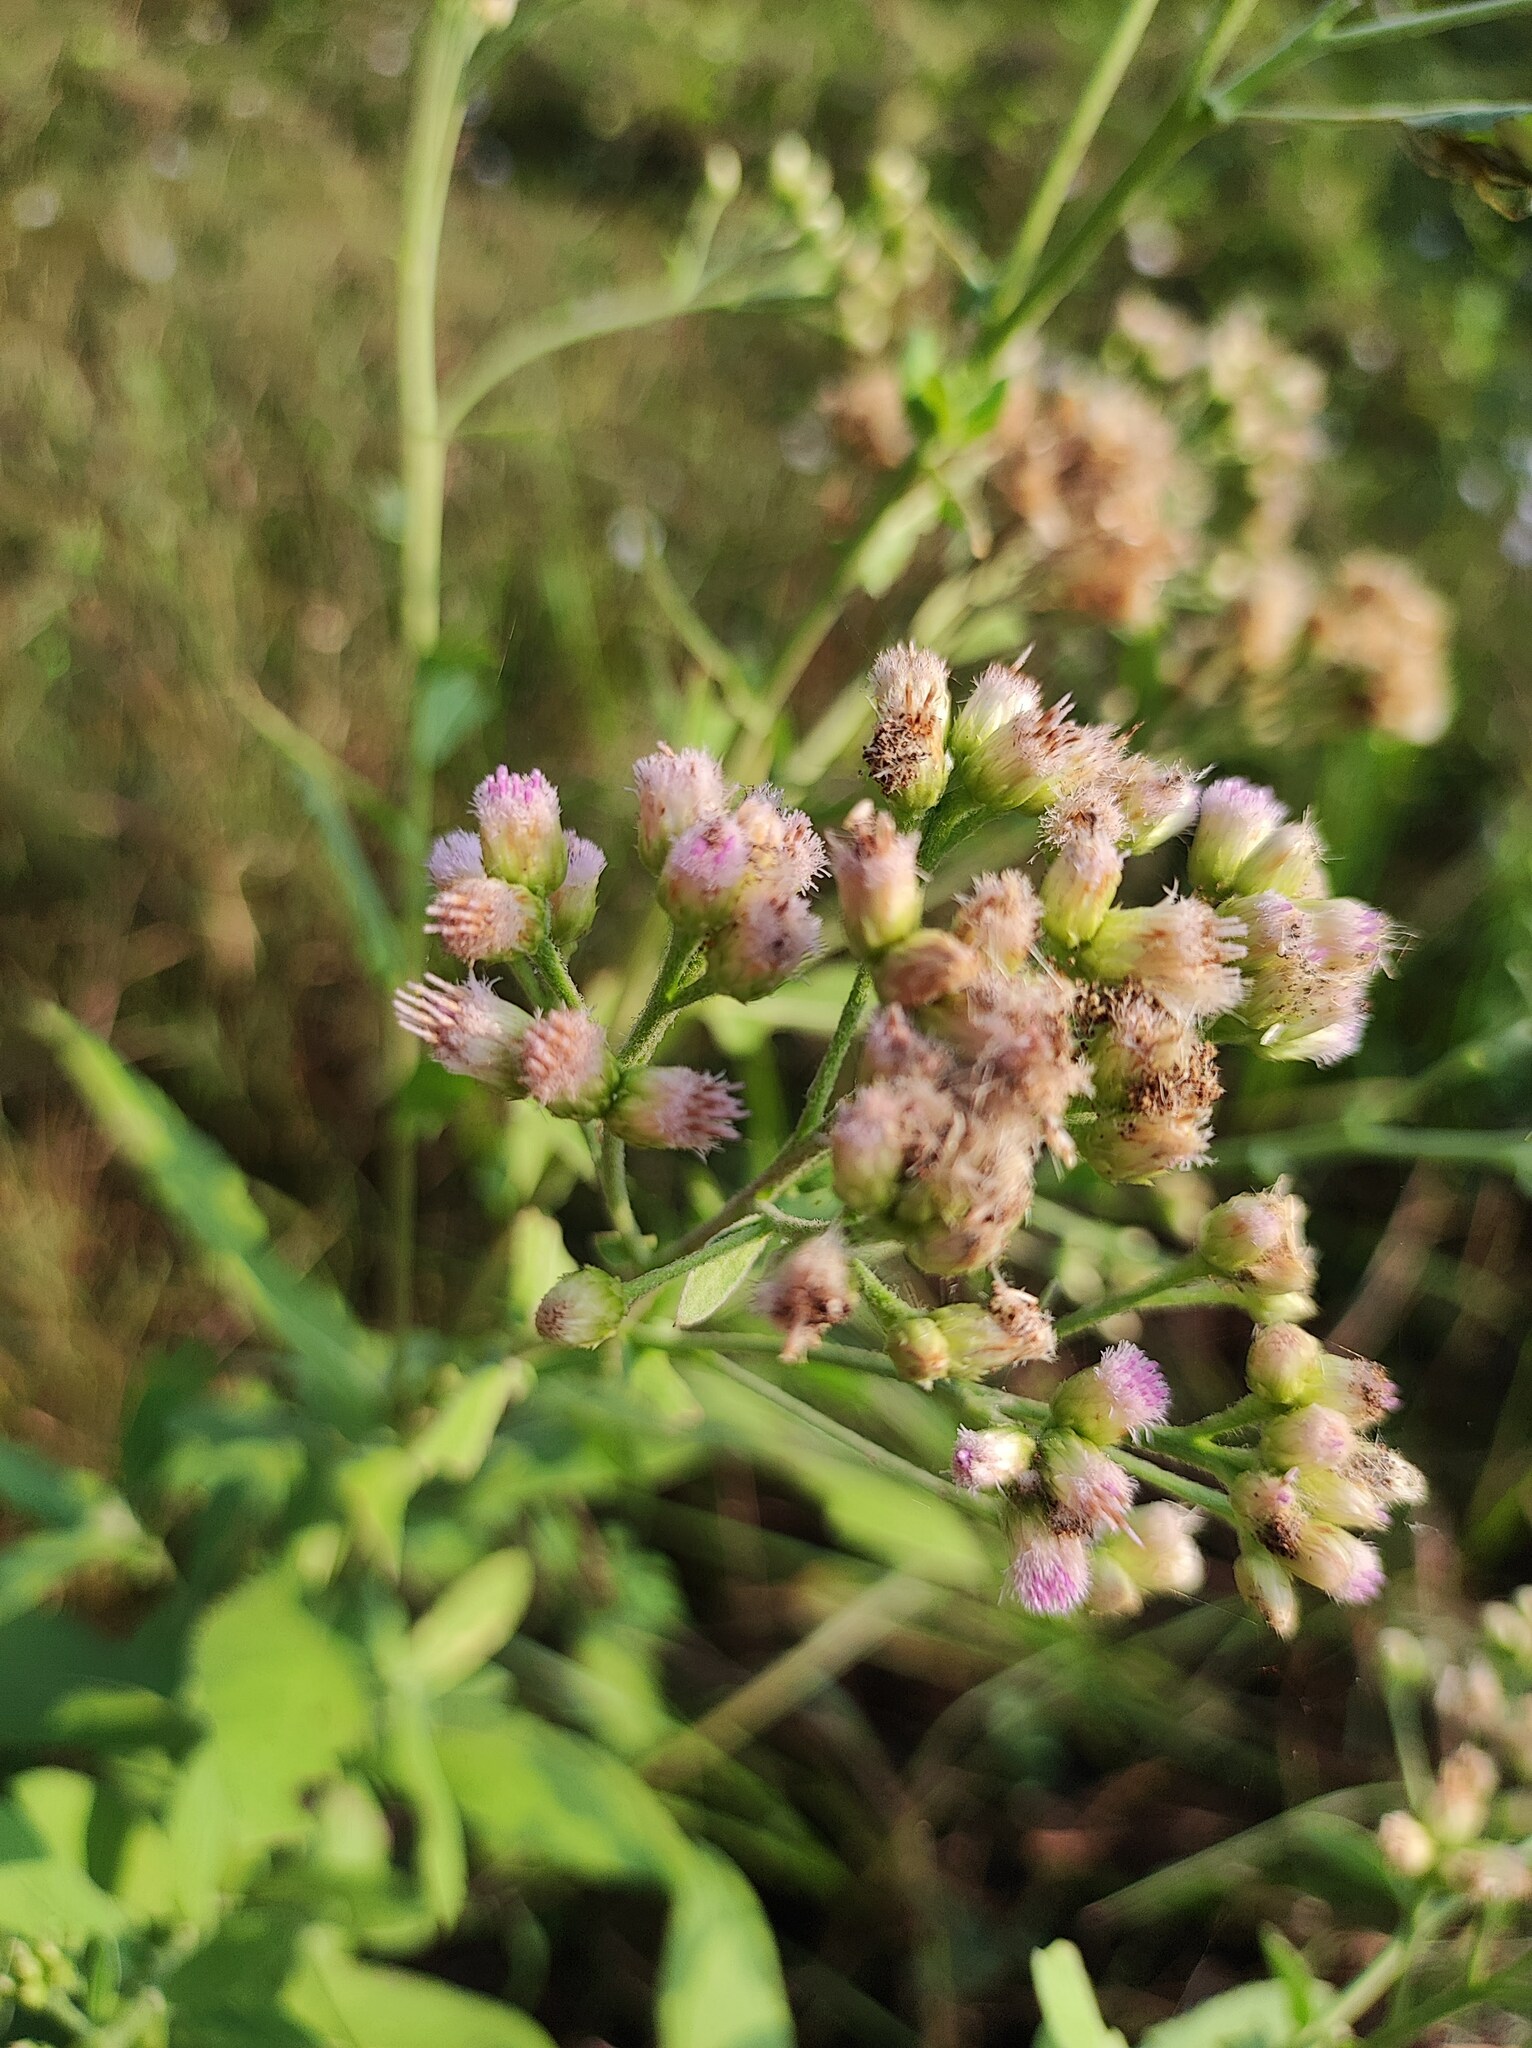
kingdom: Plantae
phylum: Tracheophyta
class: Magnoliopsida
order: Asterales
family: Asteraceae
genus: Pluchea
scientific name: Pluchea ovalis
